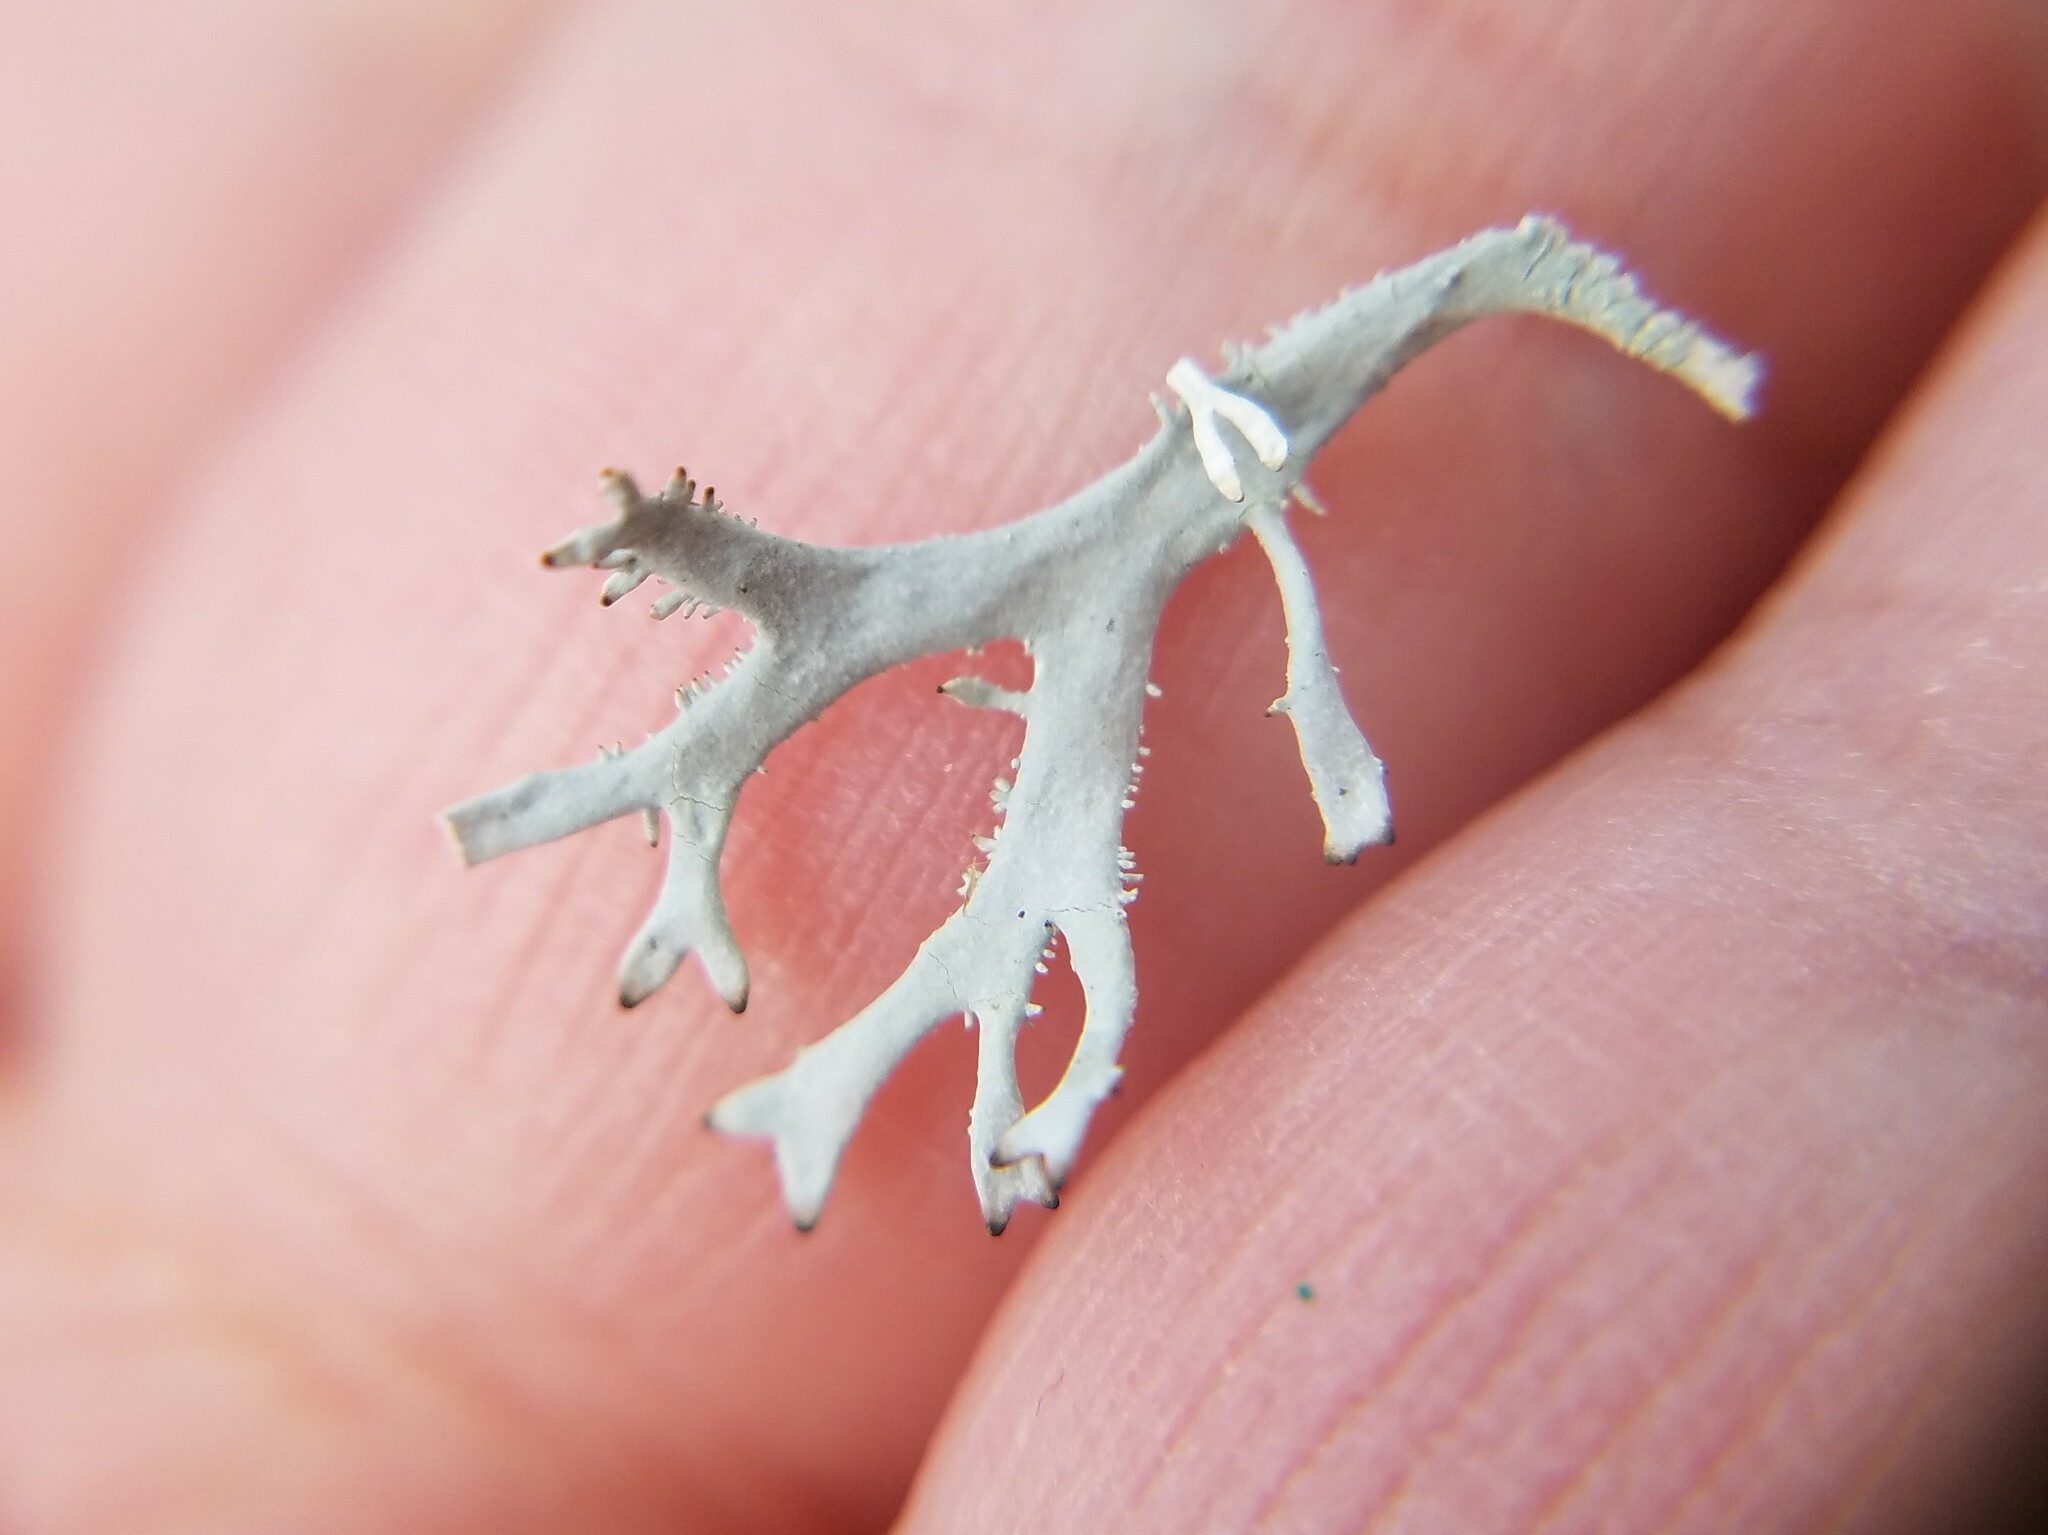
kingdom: Fungi
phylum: Ascomycota
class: Lecanoromycetes
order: Lecanorales
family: Parmeliaceae
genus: Pseudevernia
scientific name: Pseudevernia consocians
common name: Common antler lichen
